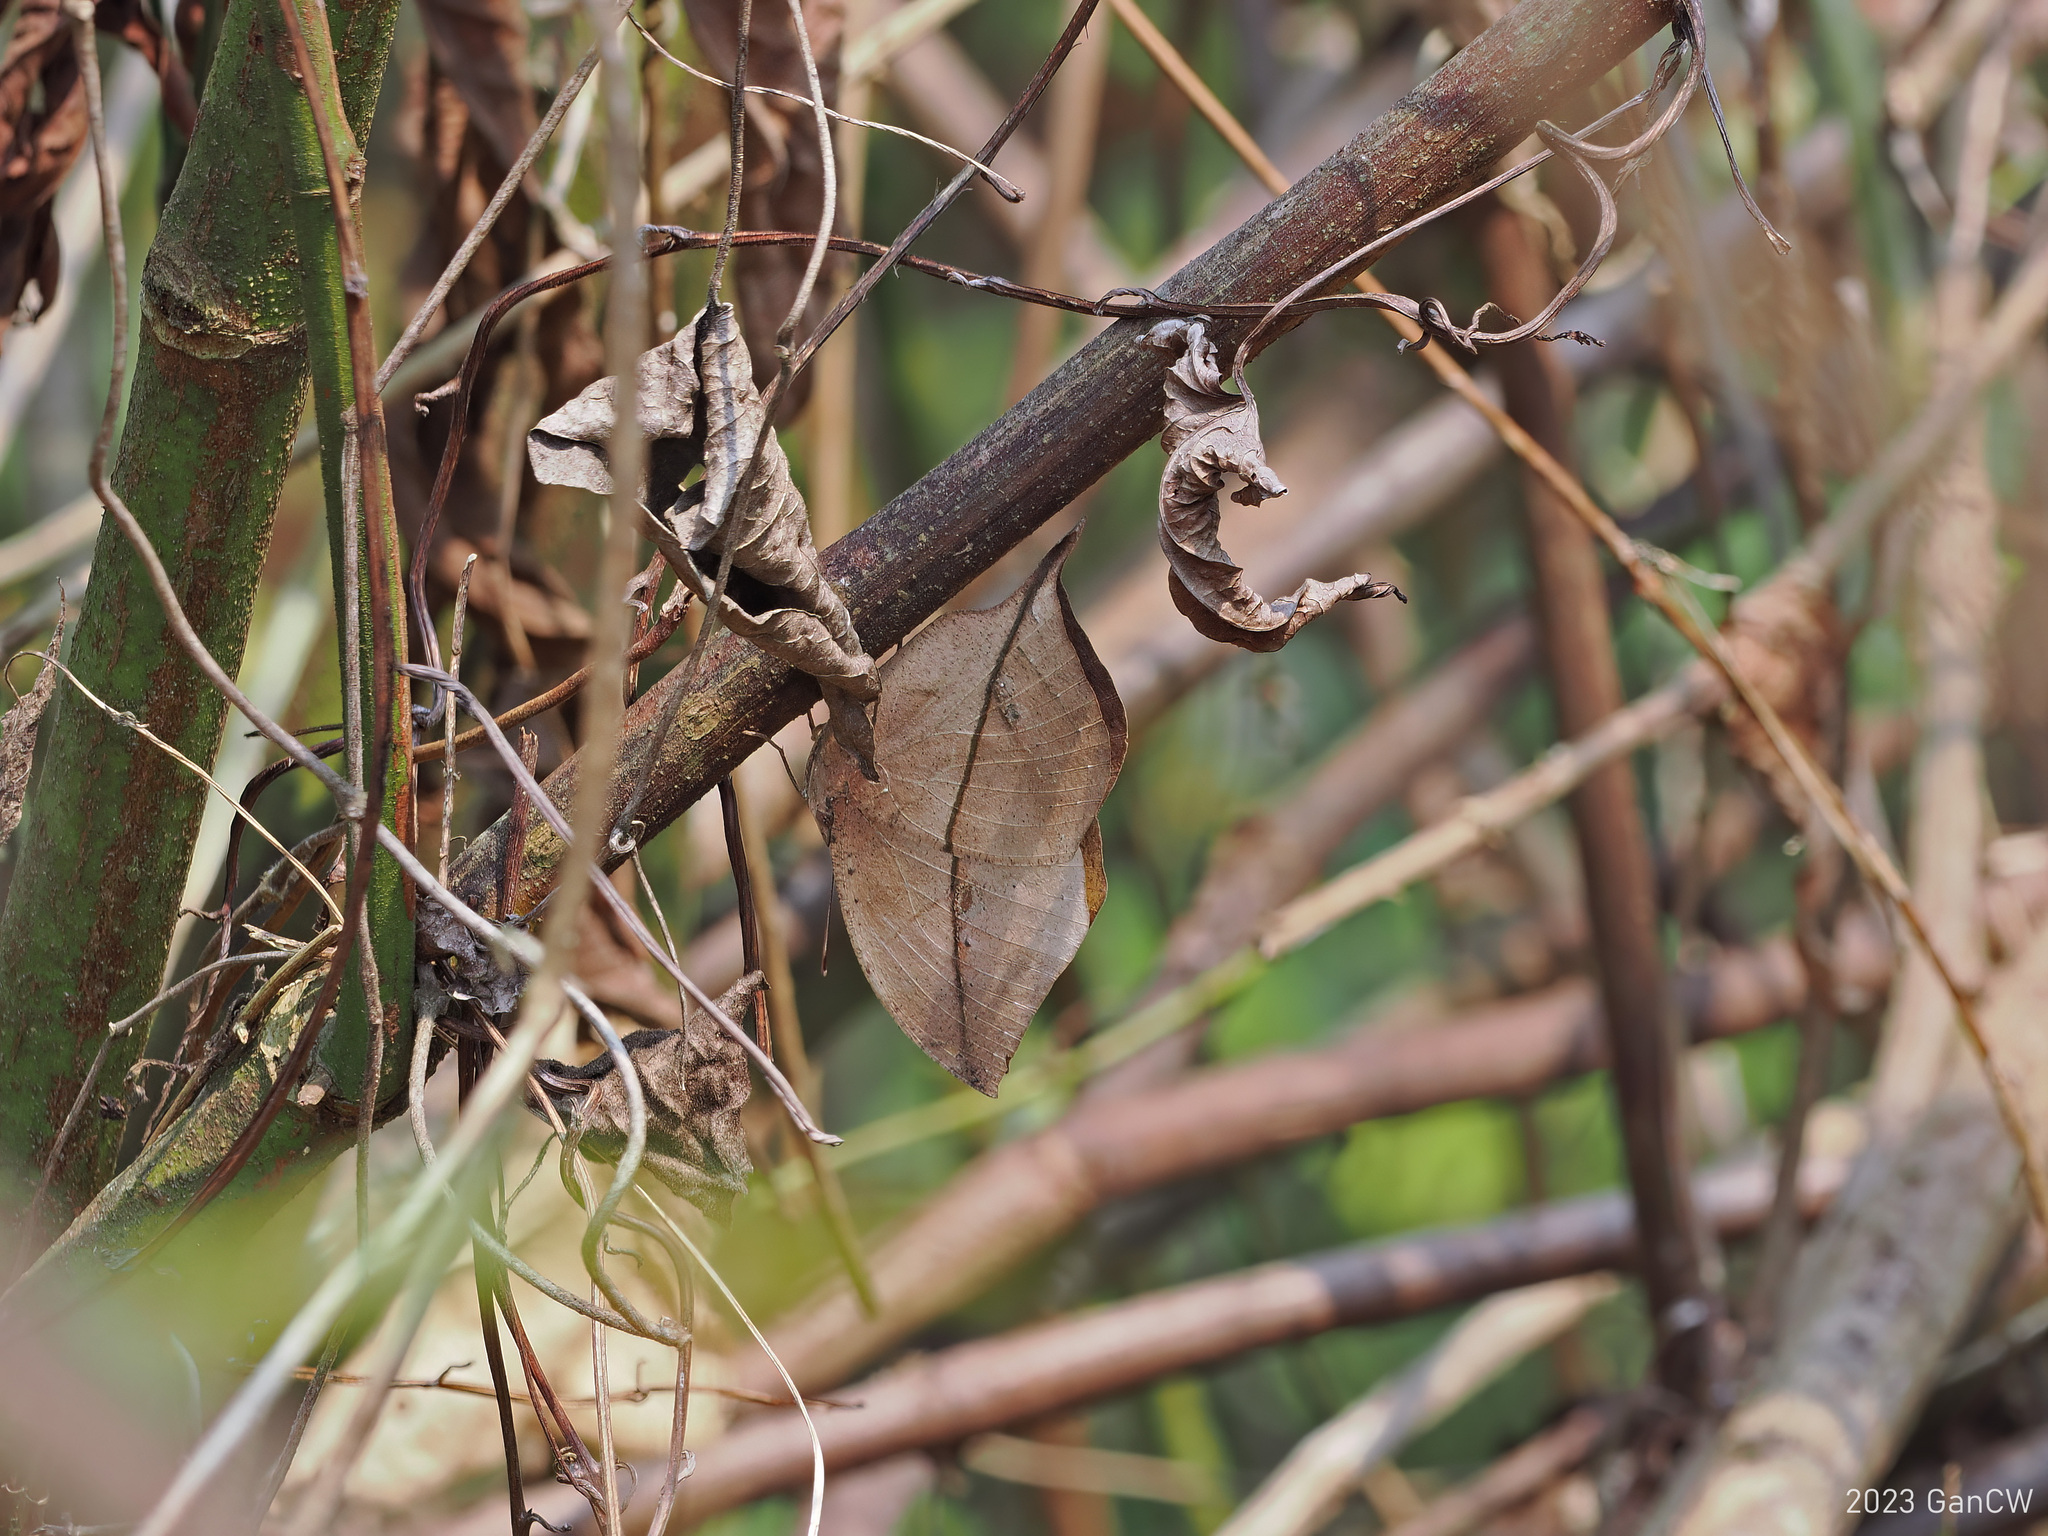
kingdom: Animalia
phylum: Arthropoda
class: Insecta
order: Lepidoptera
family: Nymphalidae
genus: Kallima
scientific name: Kallima inachus
